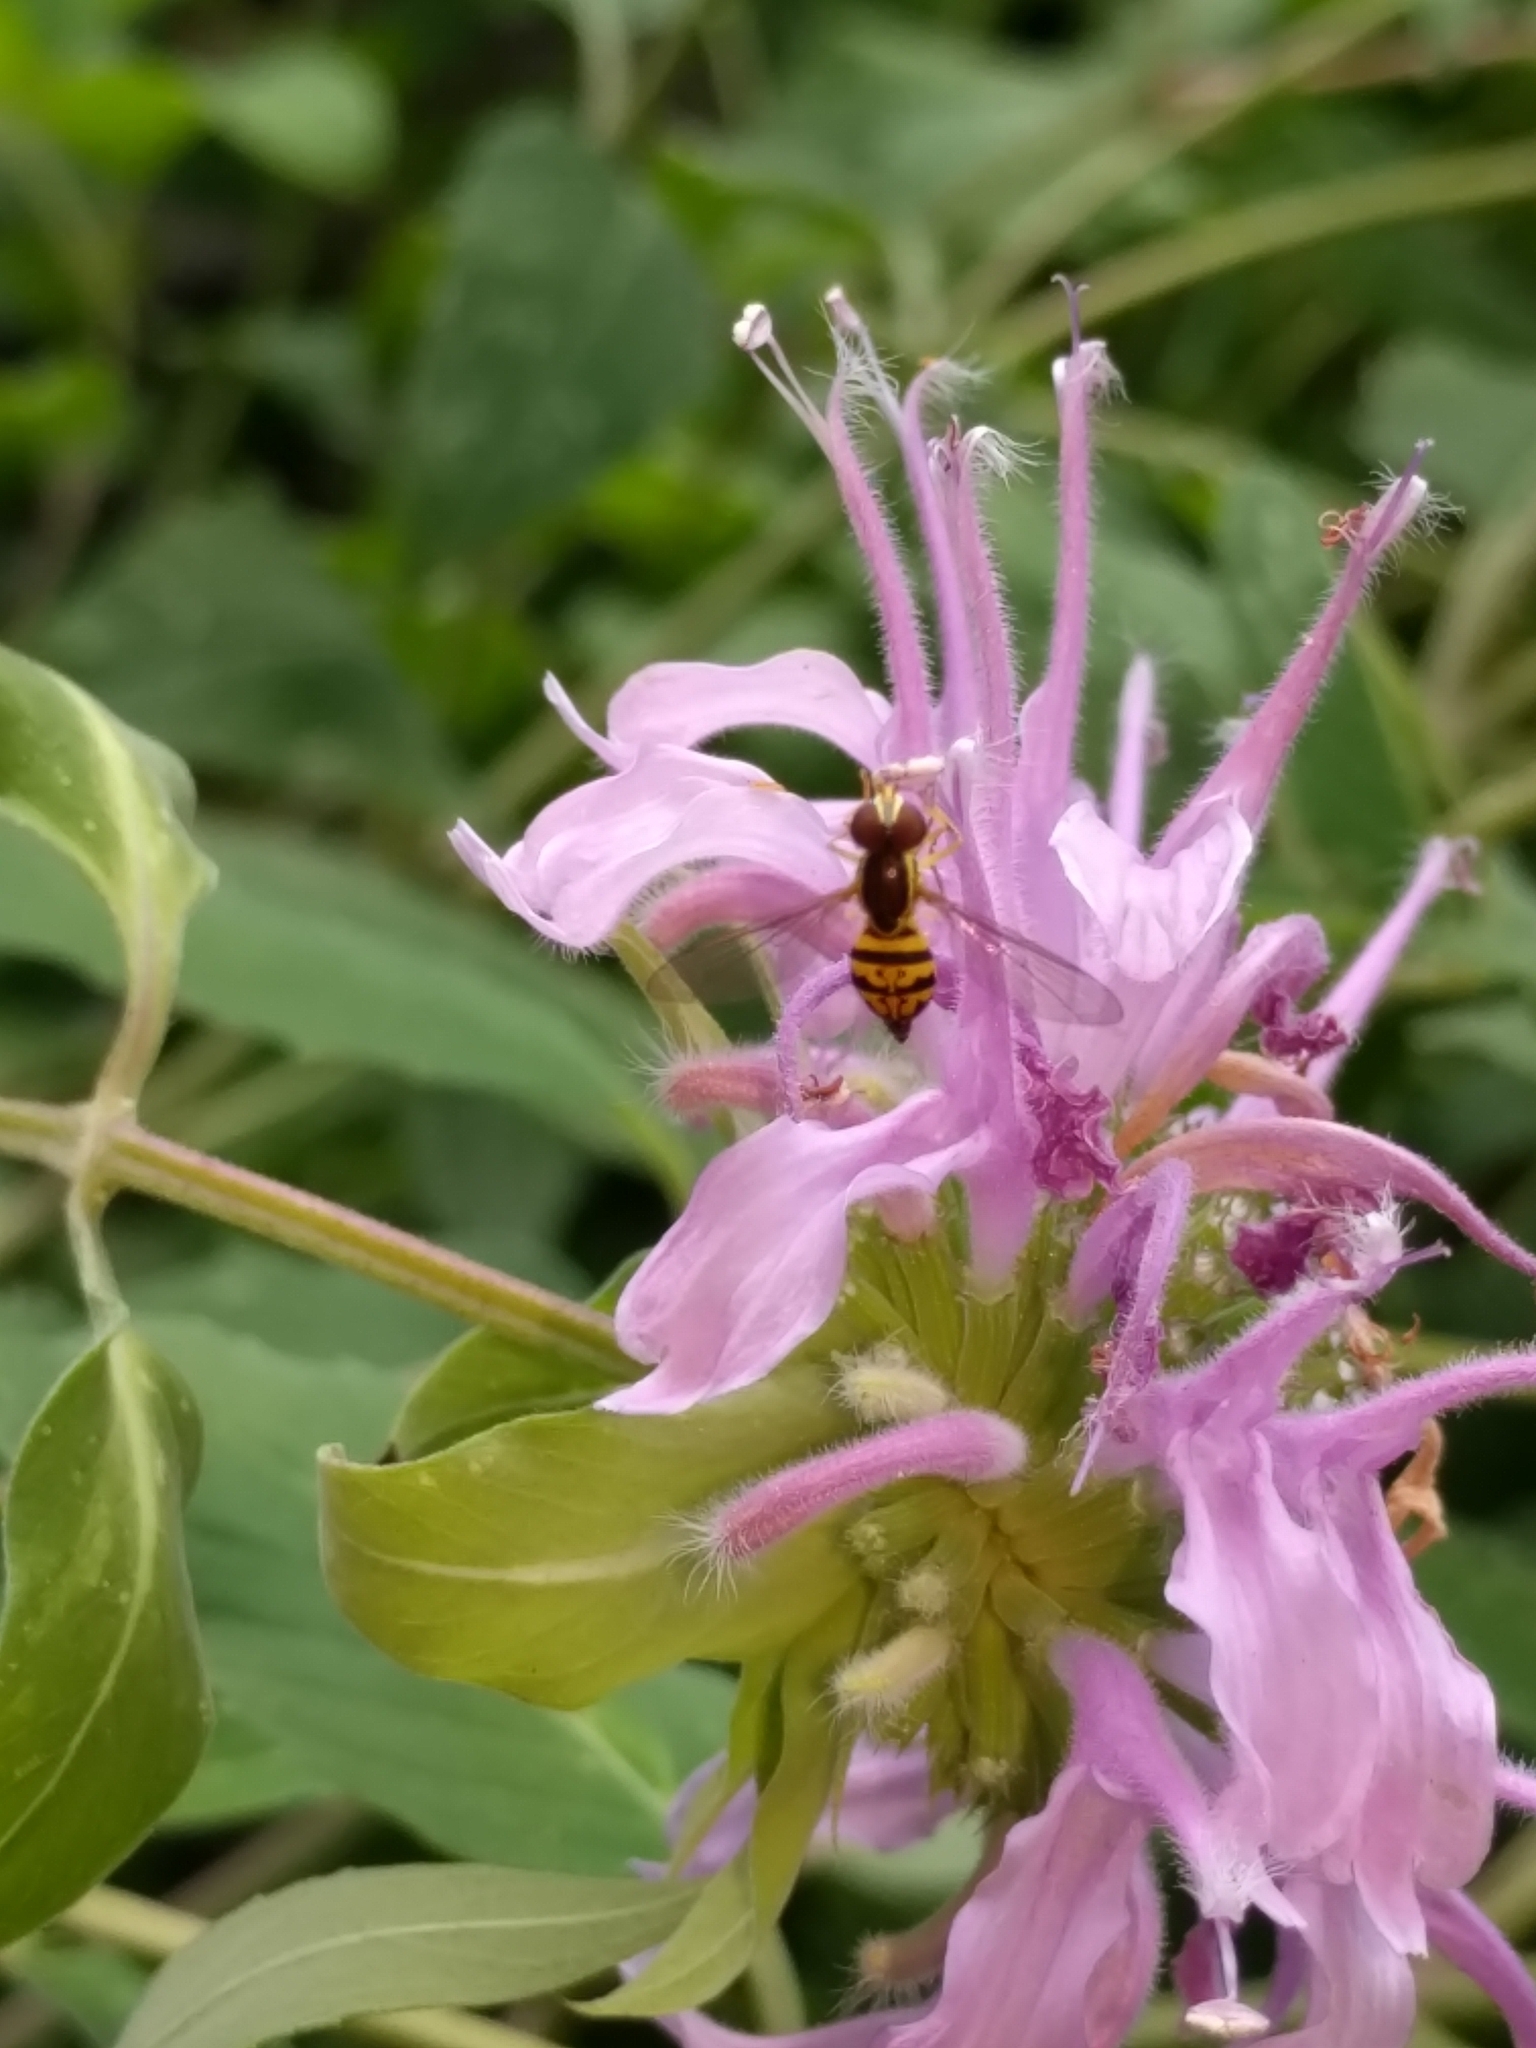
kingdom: Animalia
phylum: Arthropoda
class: Insecta
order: Diptera
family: Syrphidae
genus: Toxomerus
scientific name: Toxomerus geminatus
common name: Eastern calligrapher
